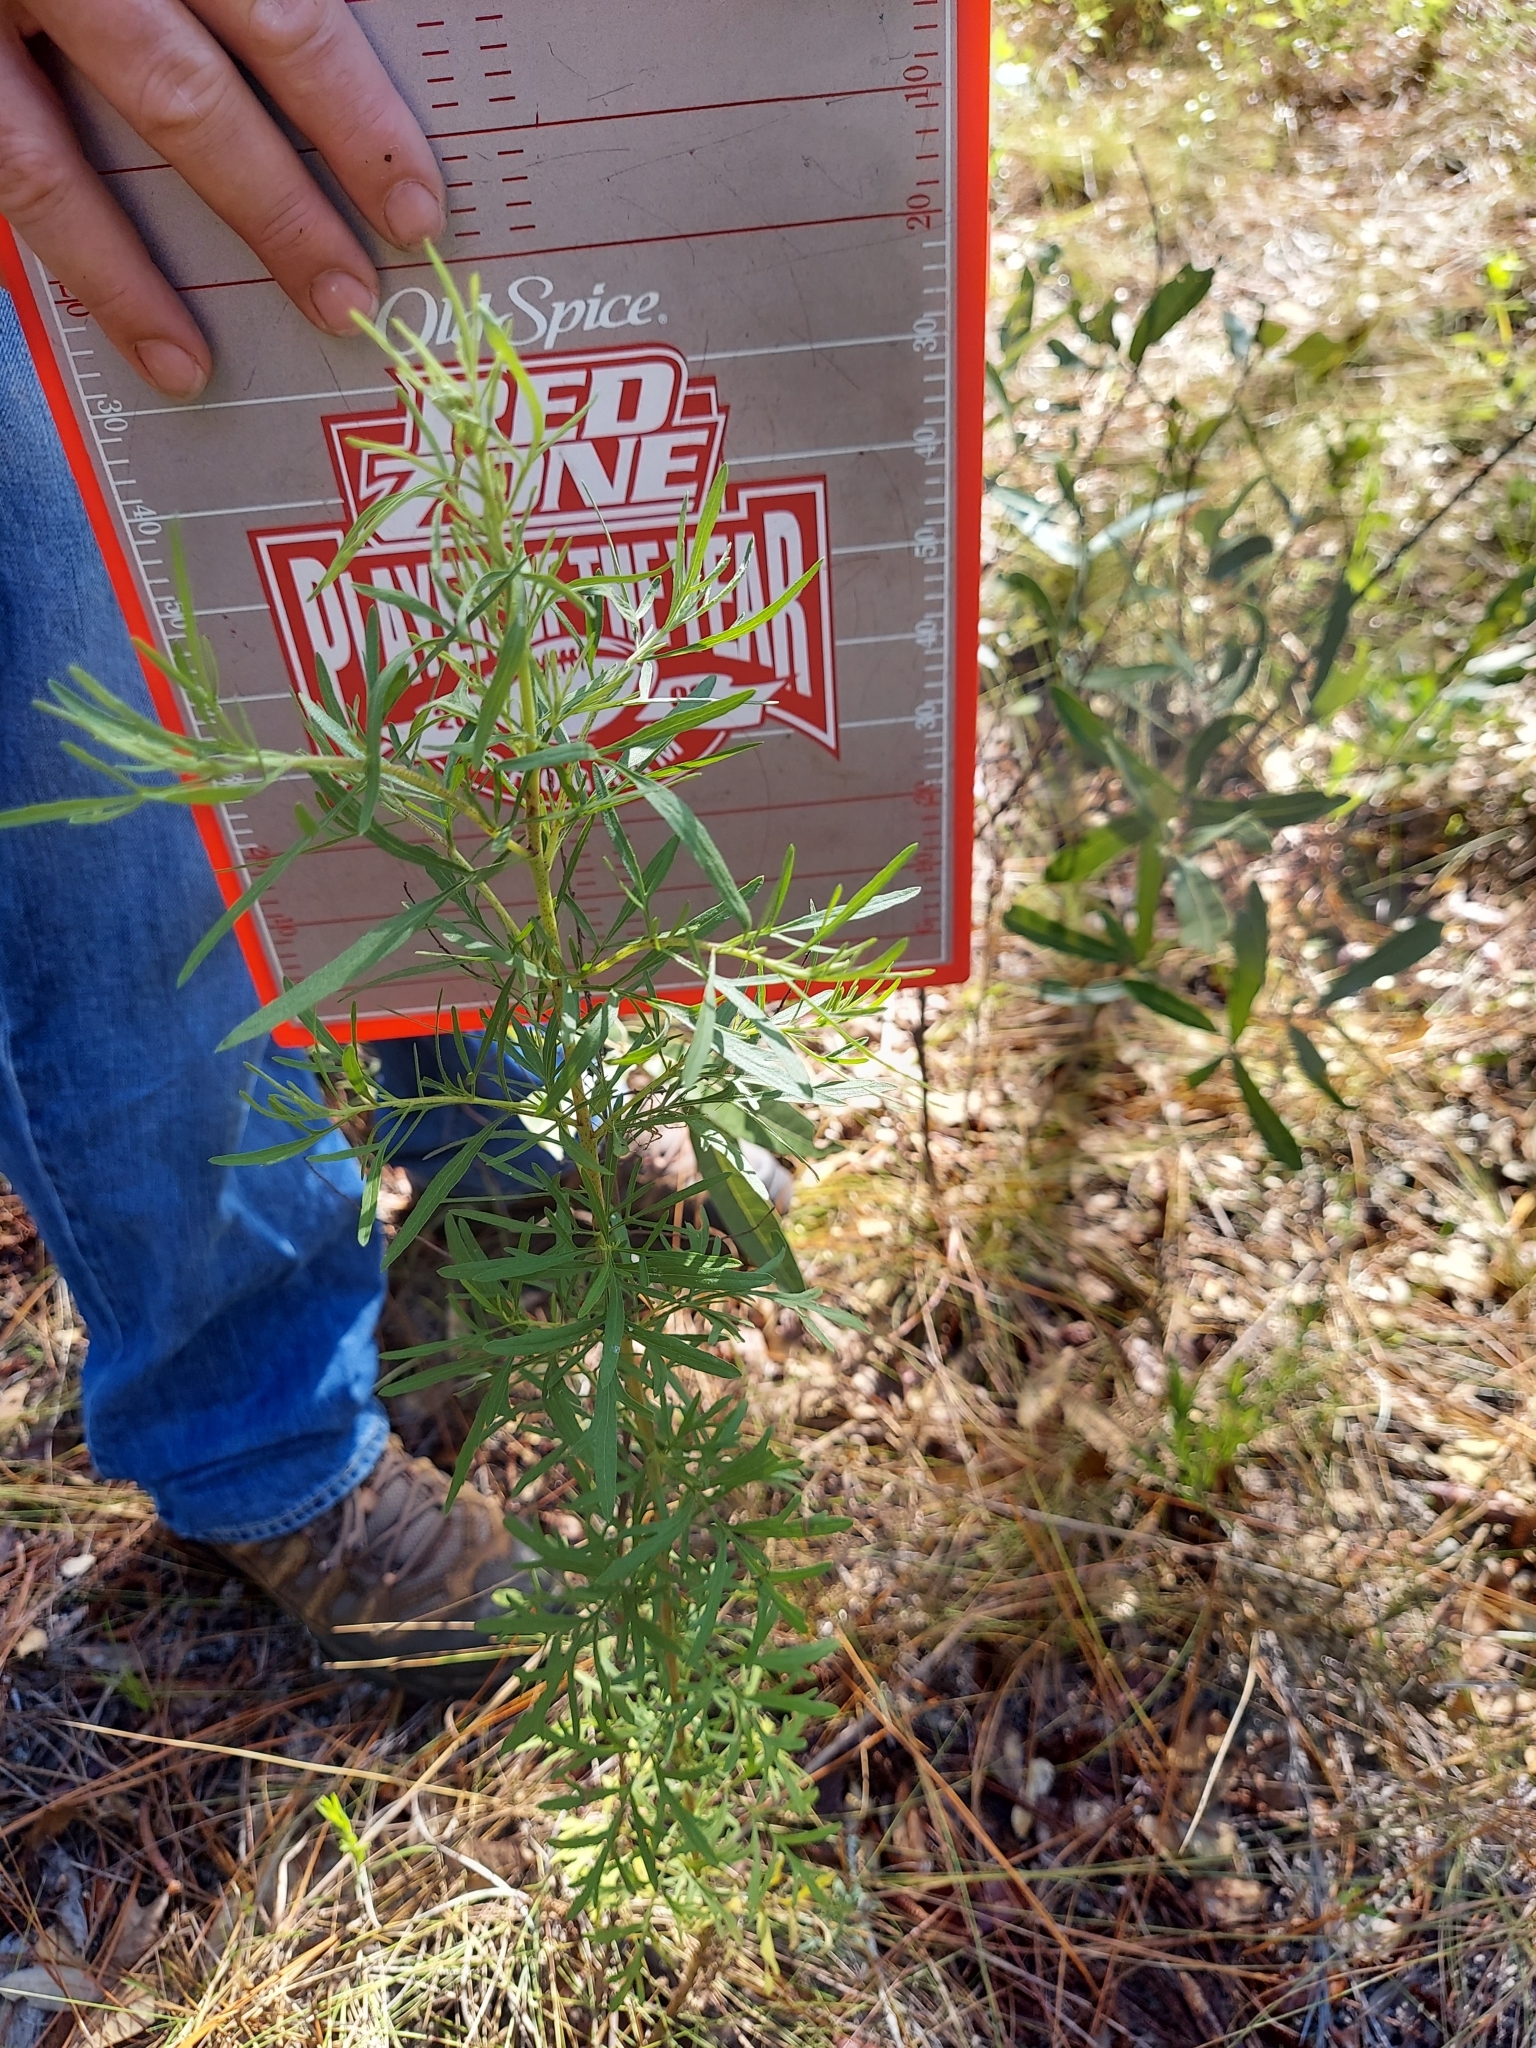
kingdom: Plantae
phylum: Tracheophyta
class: Magnoliopsida
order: Asterales
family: Asteraceae
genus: Eupatorium
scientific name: Eupatorium compositifolium
